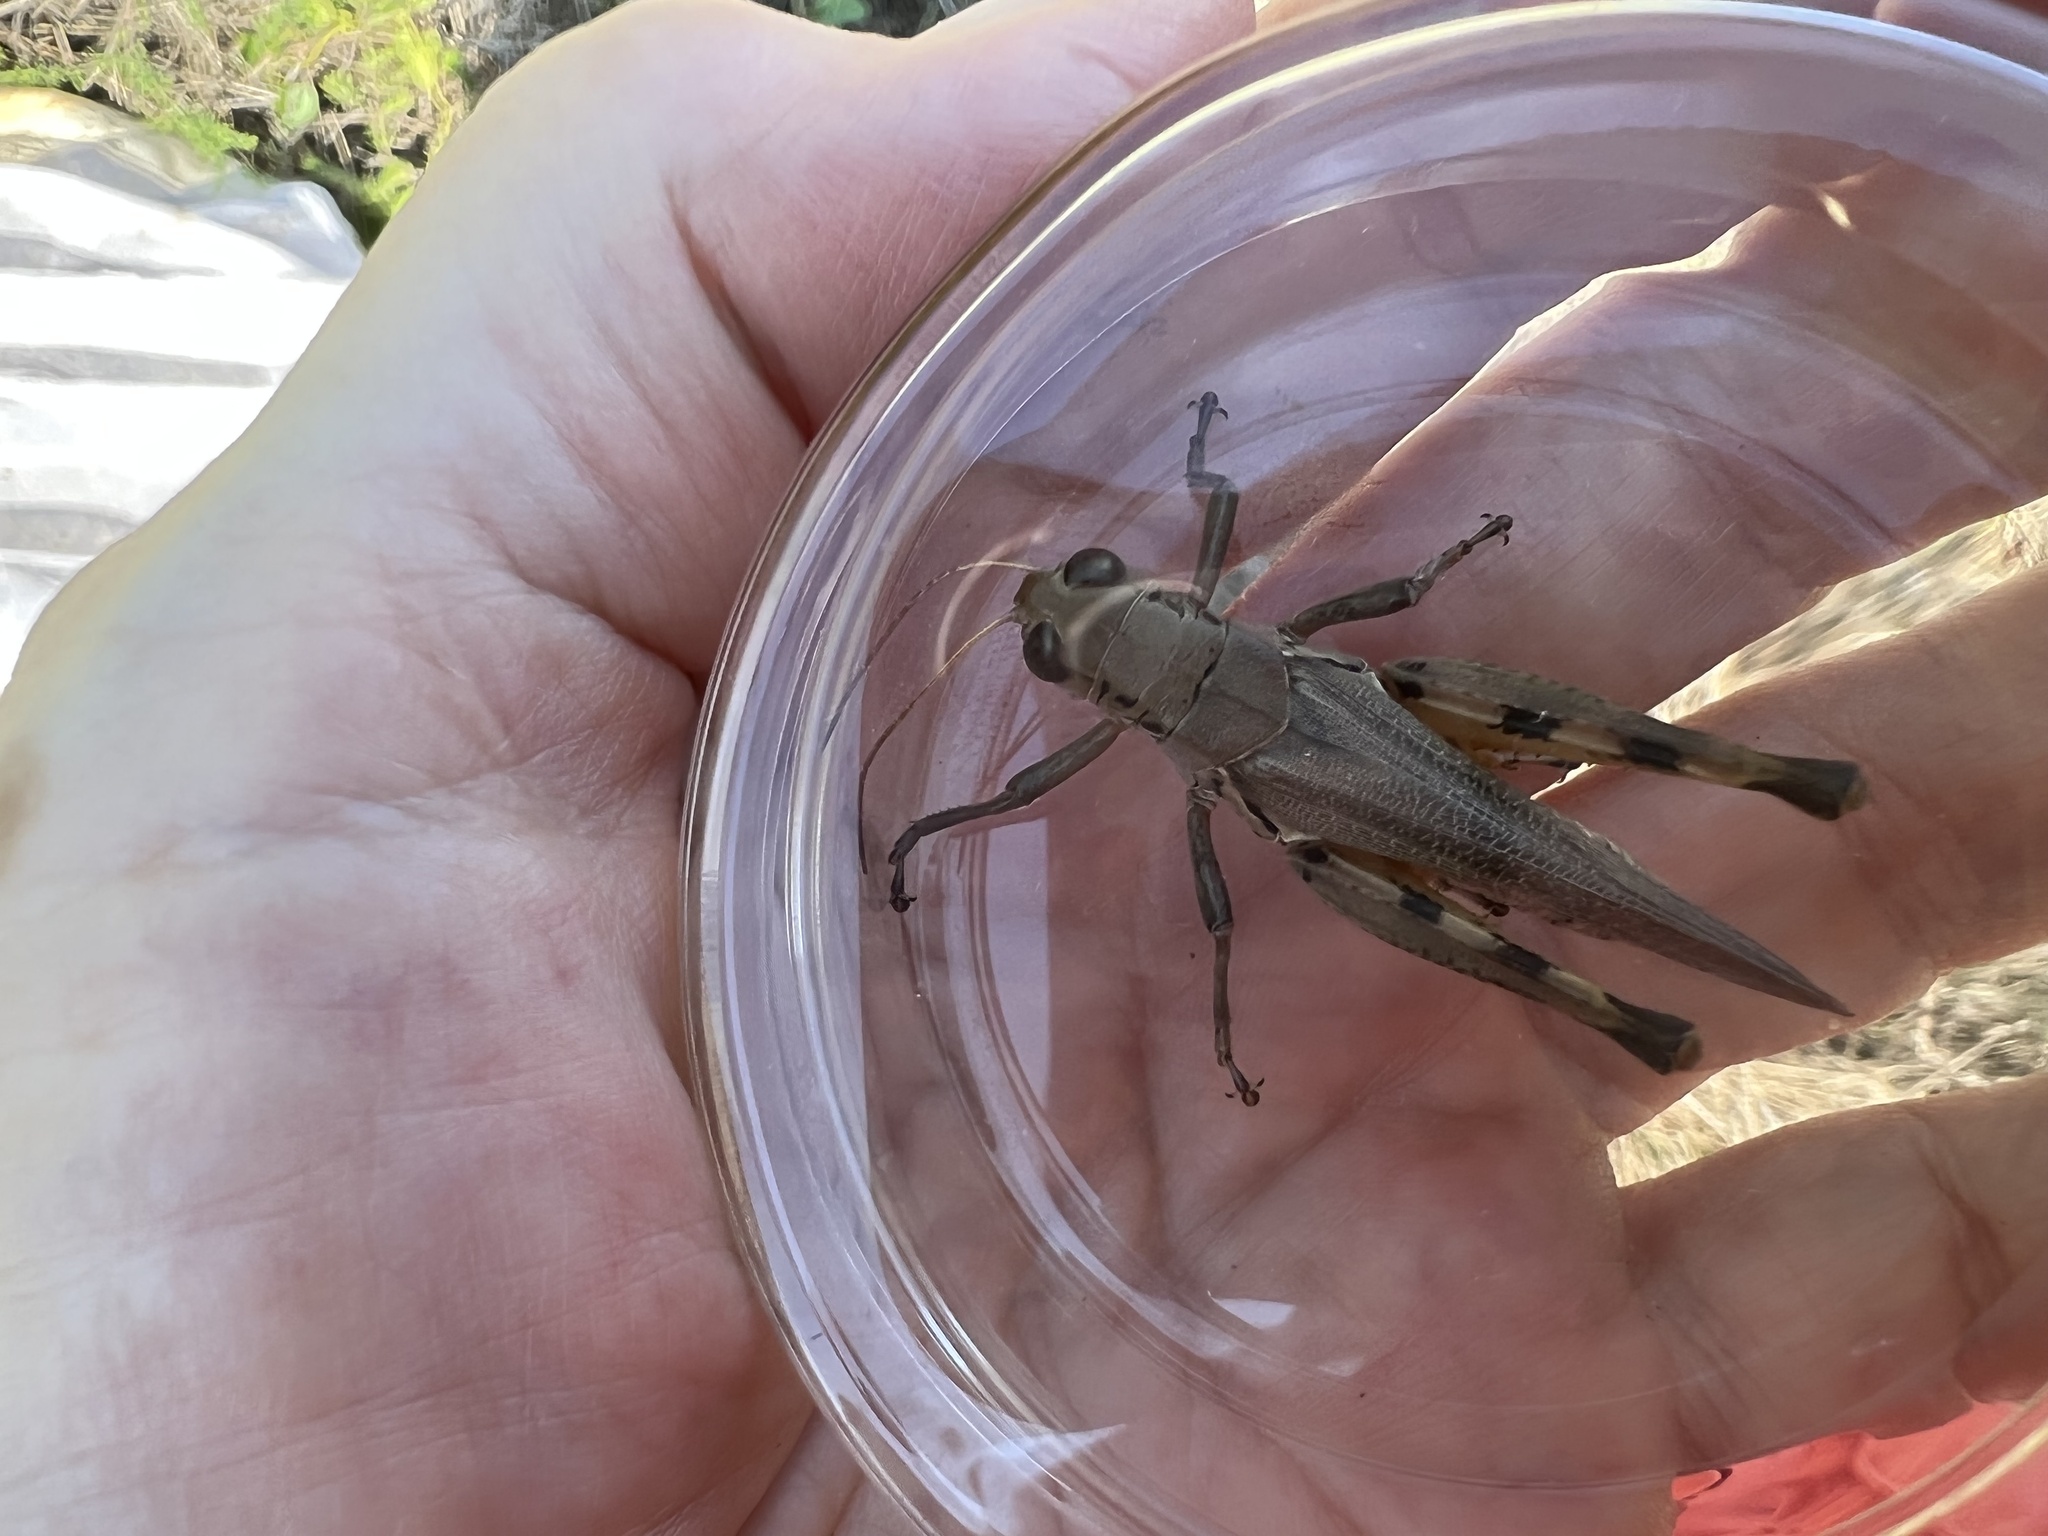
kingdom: Animalia
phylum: Arthropoda
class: Insecta
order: Orthoptera
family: Acrididae
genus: Melanoplus
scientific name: Melanoplus differentialis
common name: Differential grasshopper
